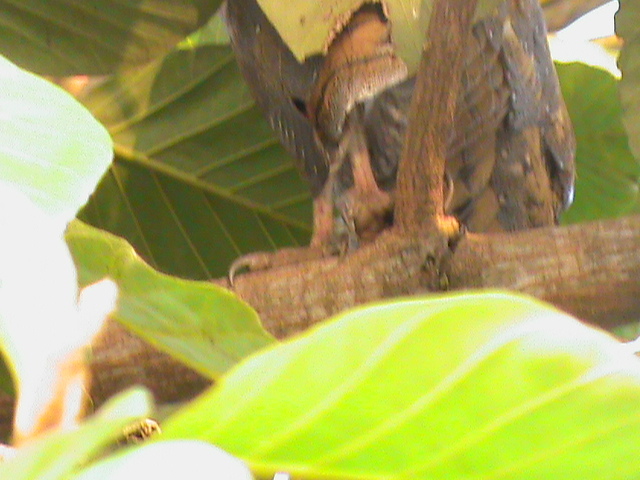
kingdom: Animalia
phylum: Chordata
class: Aves
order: Strigiformes
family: Tytonidae
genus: Tyto
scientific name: Tyto alba
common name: Barn owl
